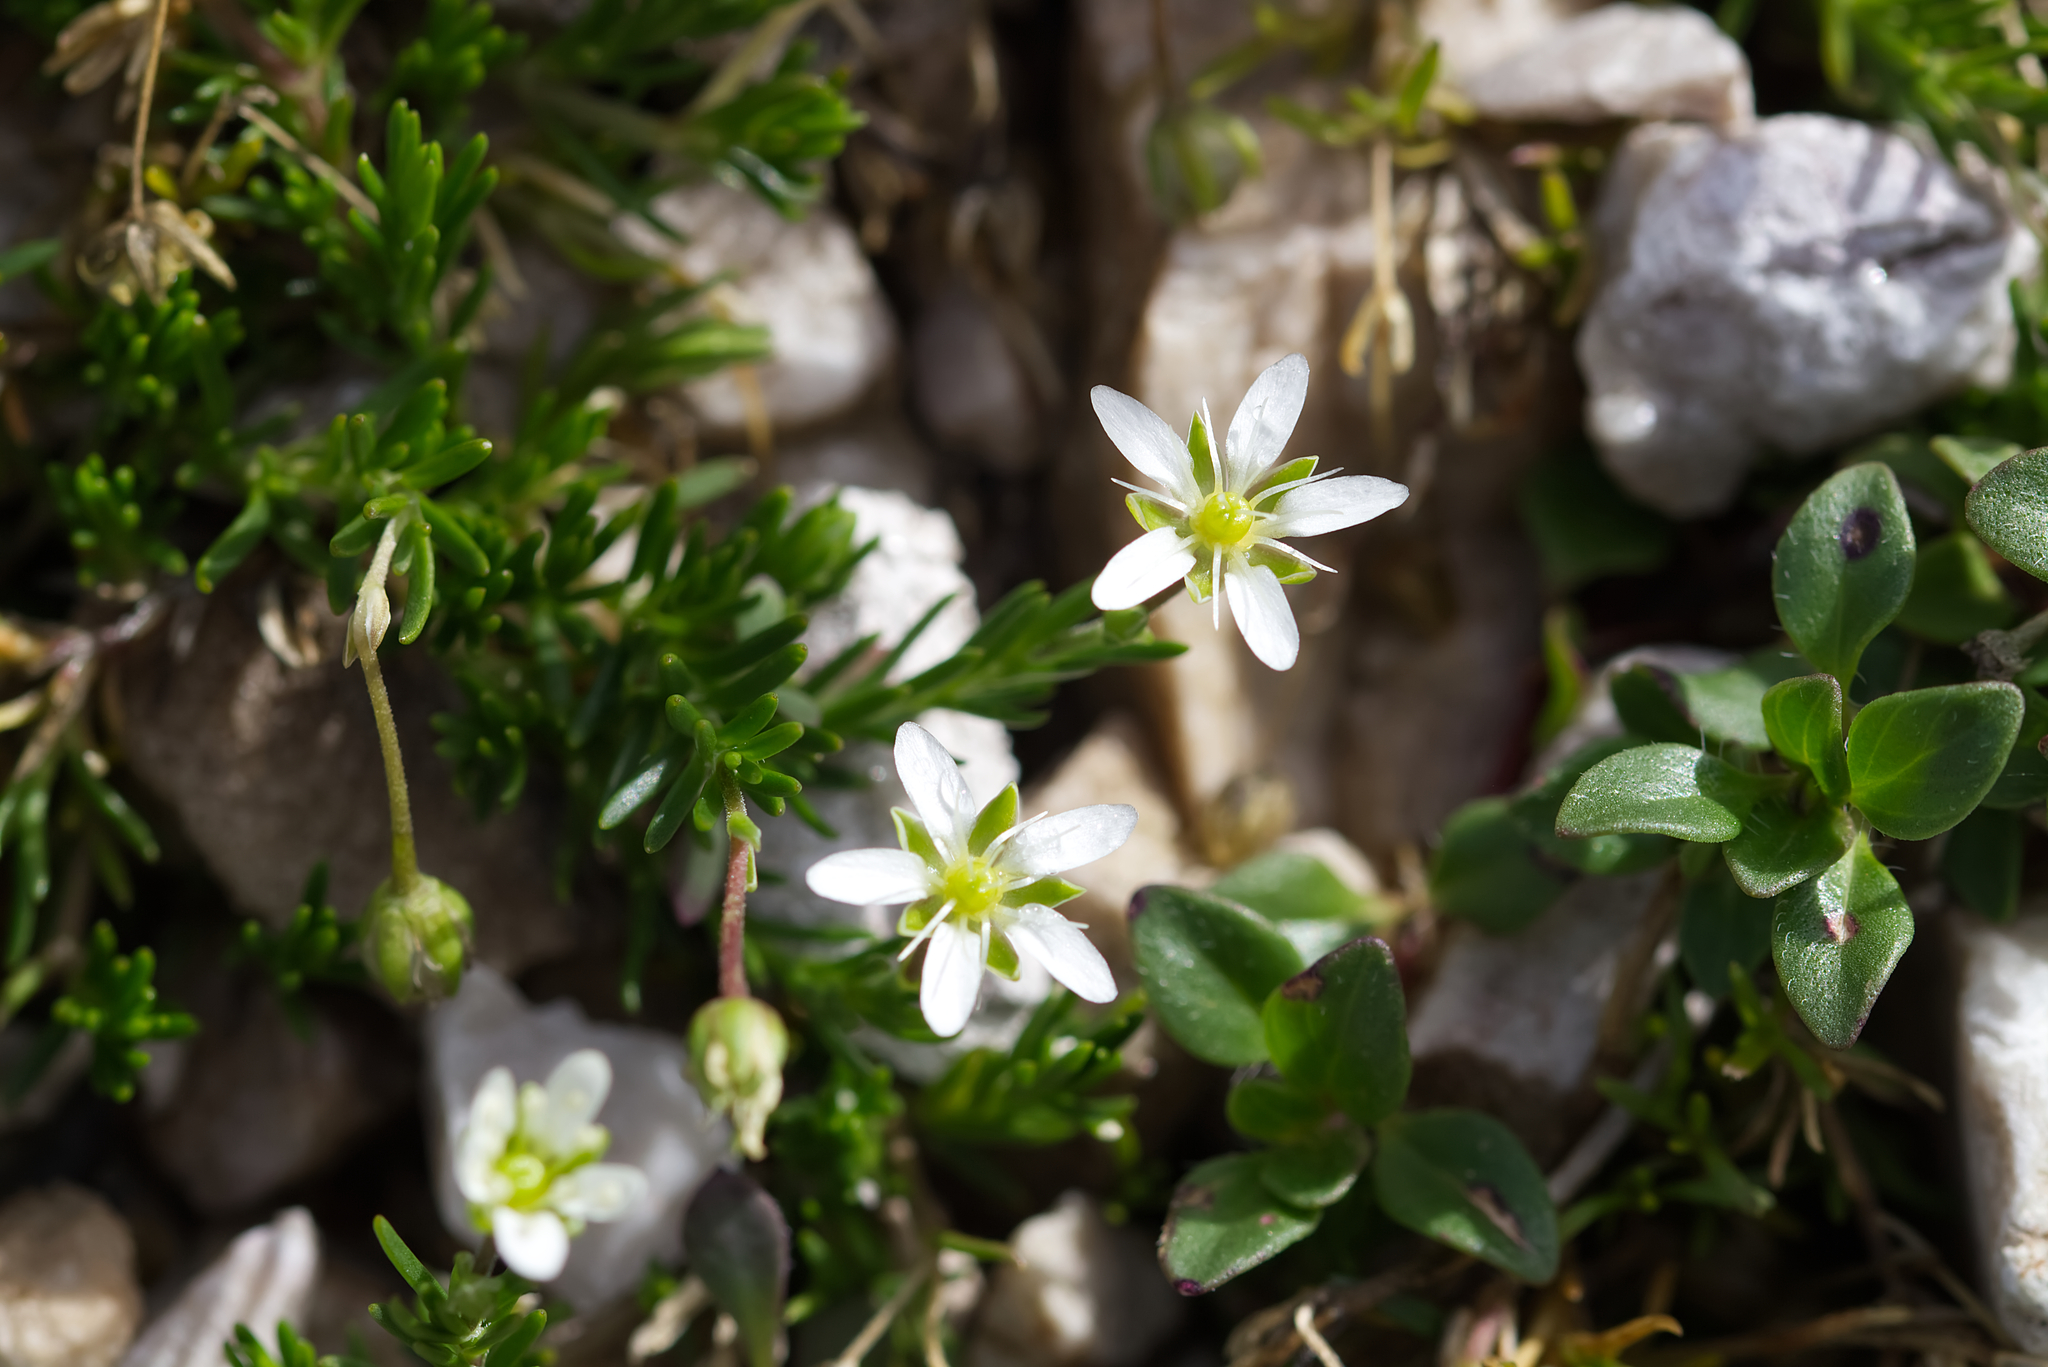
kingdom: Plantae
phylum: Tracheophyta
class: Magnoliopsida
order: Caryophyllales
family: Caryophyllaceae
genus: Moehringia
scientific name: Moehringia ciliata
